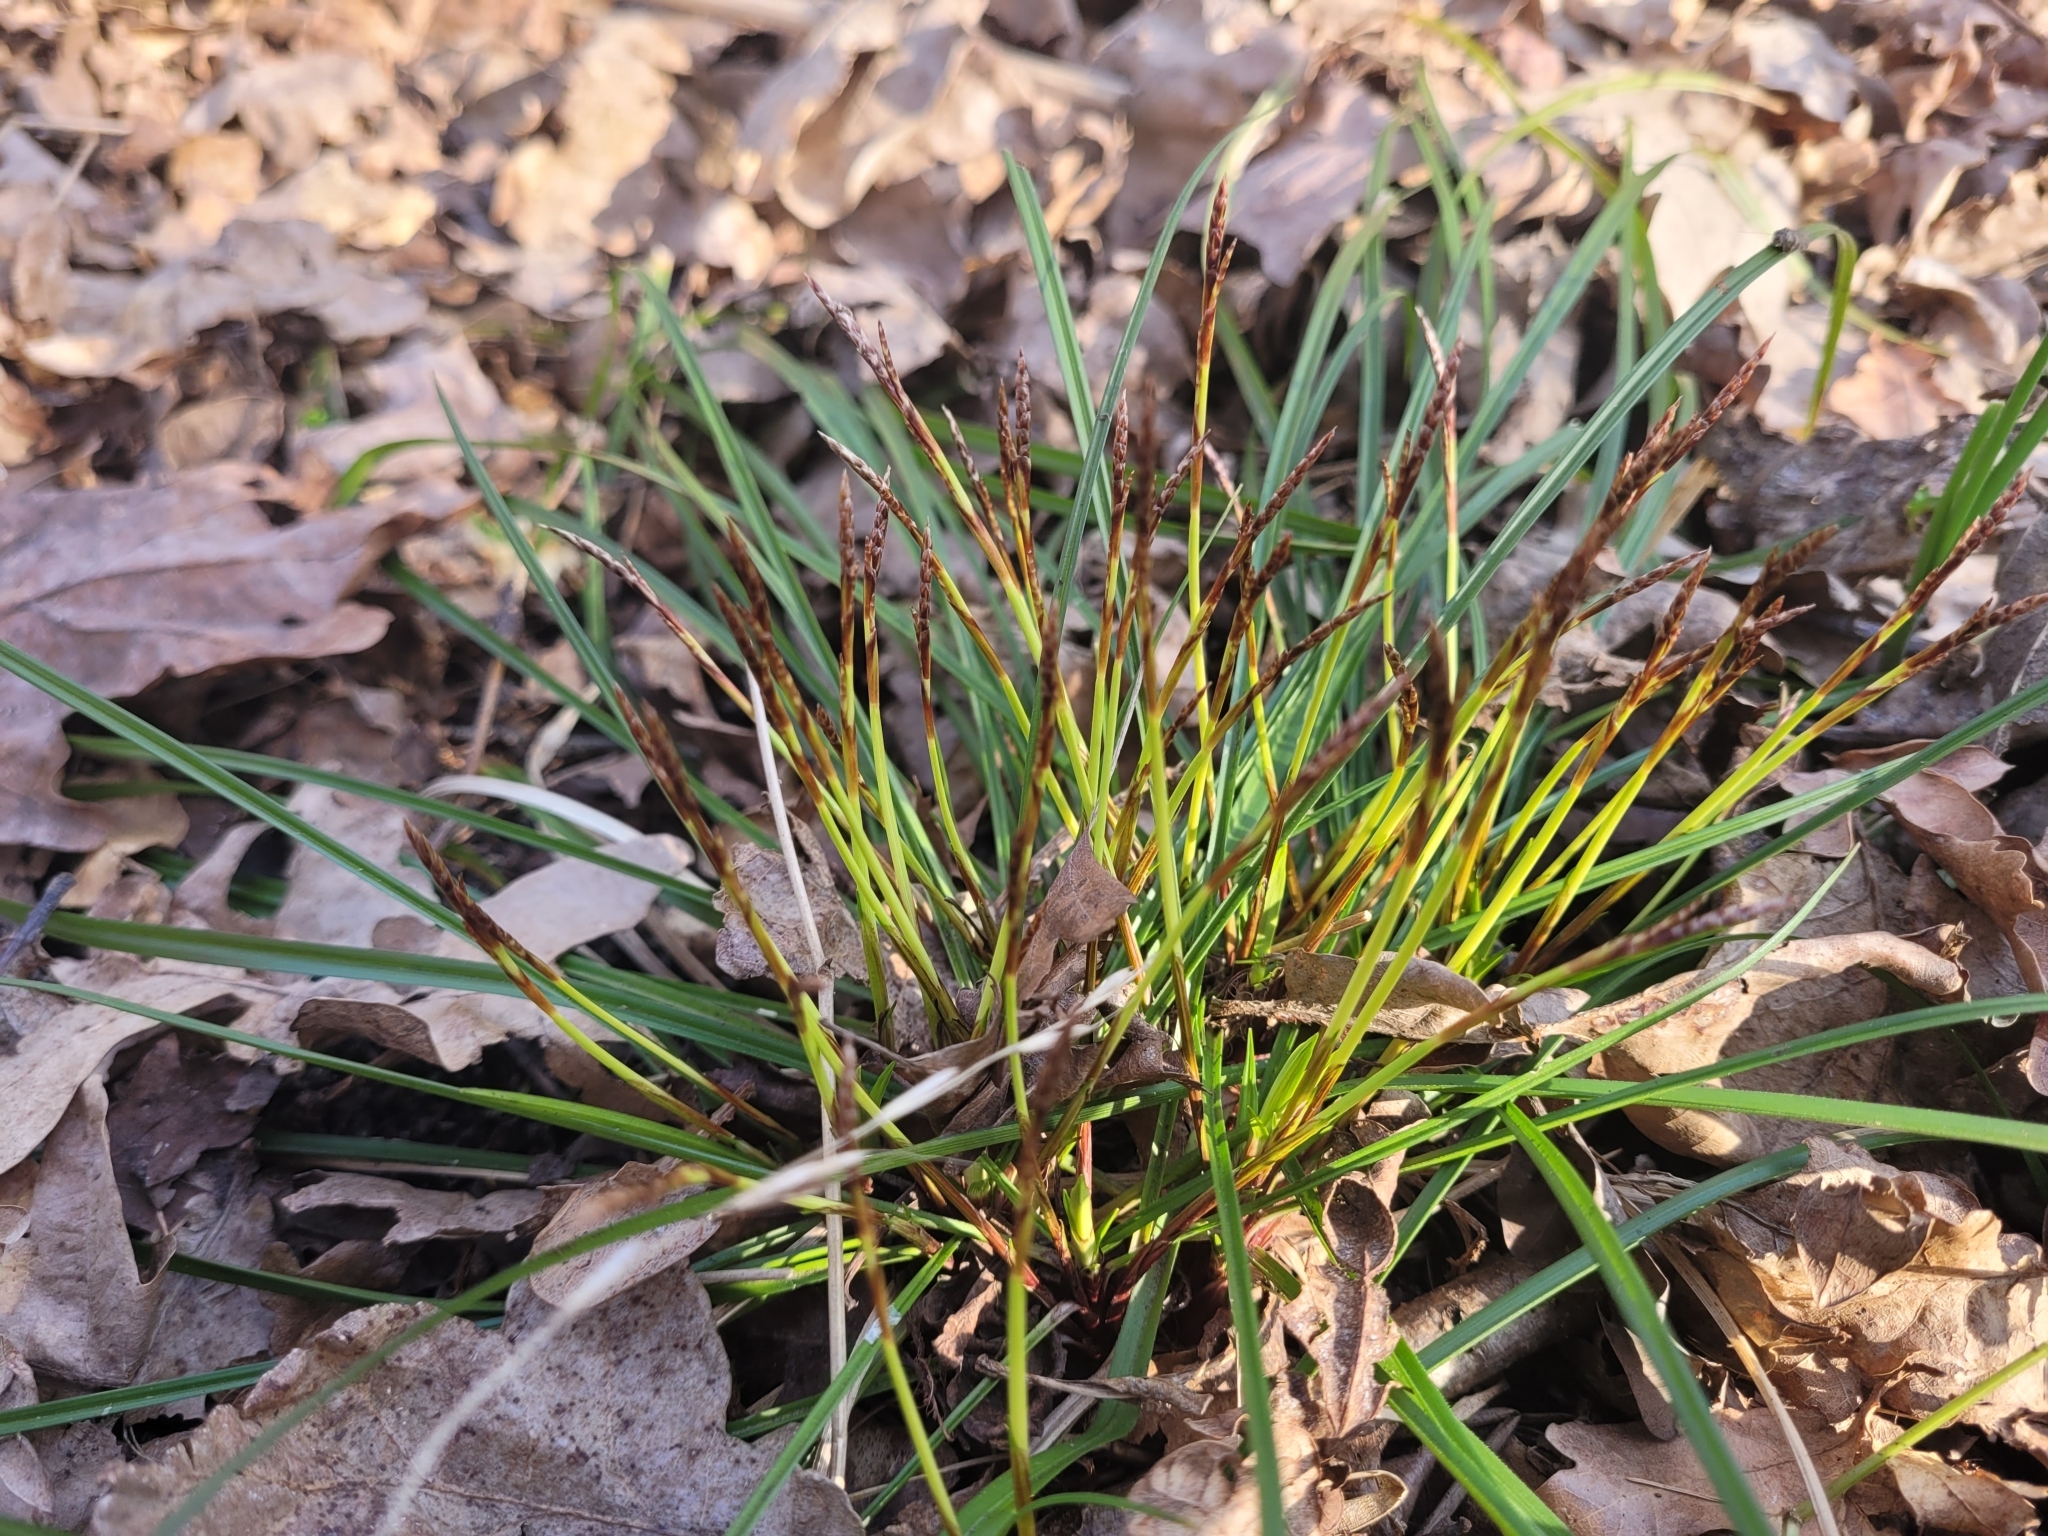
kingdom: Plantae
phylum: Tracheophyta
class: Liliopsida
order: Poales
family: Cyperaceae
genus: Carex
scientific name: Carex digitata
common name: Fingered sedge
